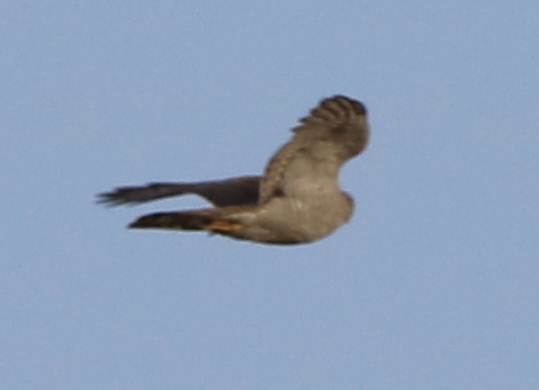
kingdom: Animalia
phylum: Chordata
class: Aves
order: Accipitriformes
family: Accipitridae
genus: Accipiter
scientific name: Accipiter nisus
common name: Eurasian sparrowhawk
